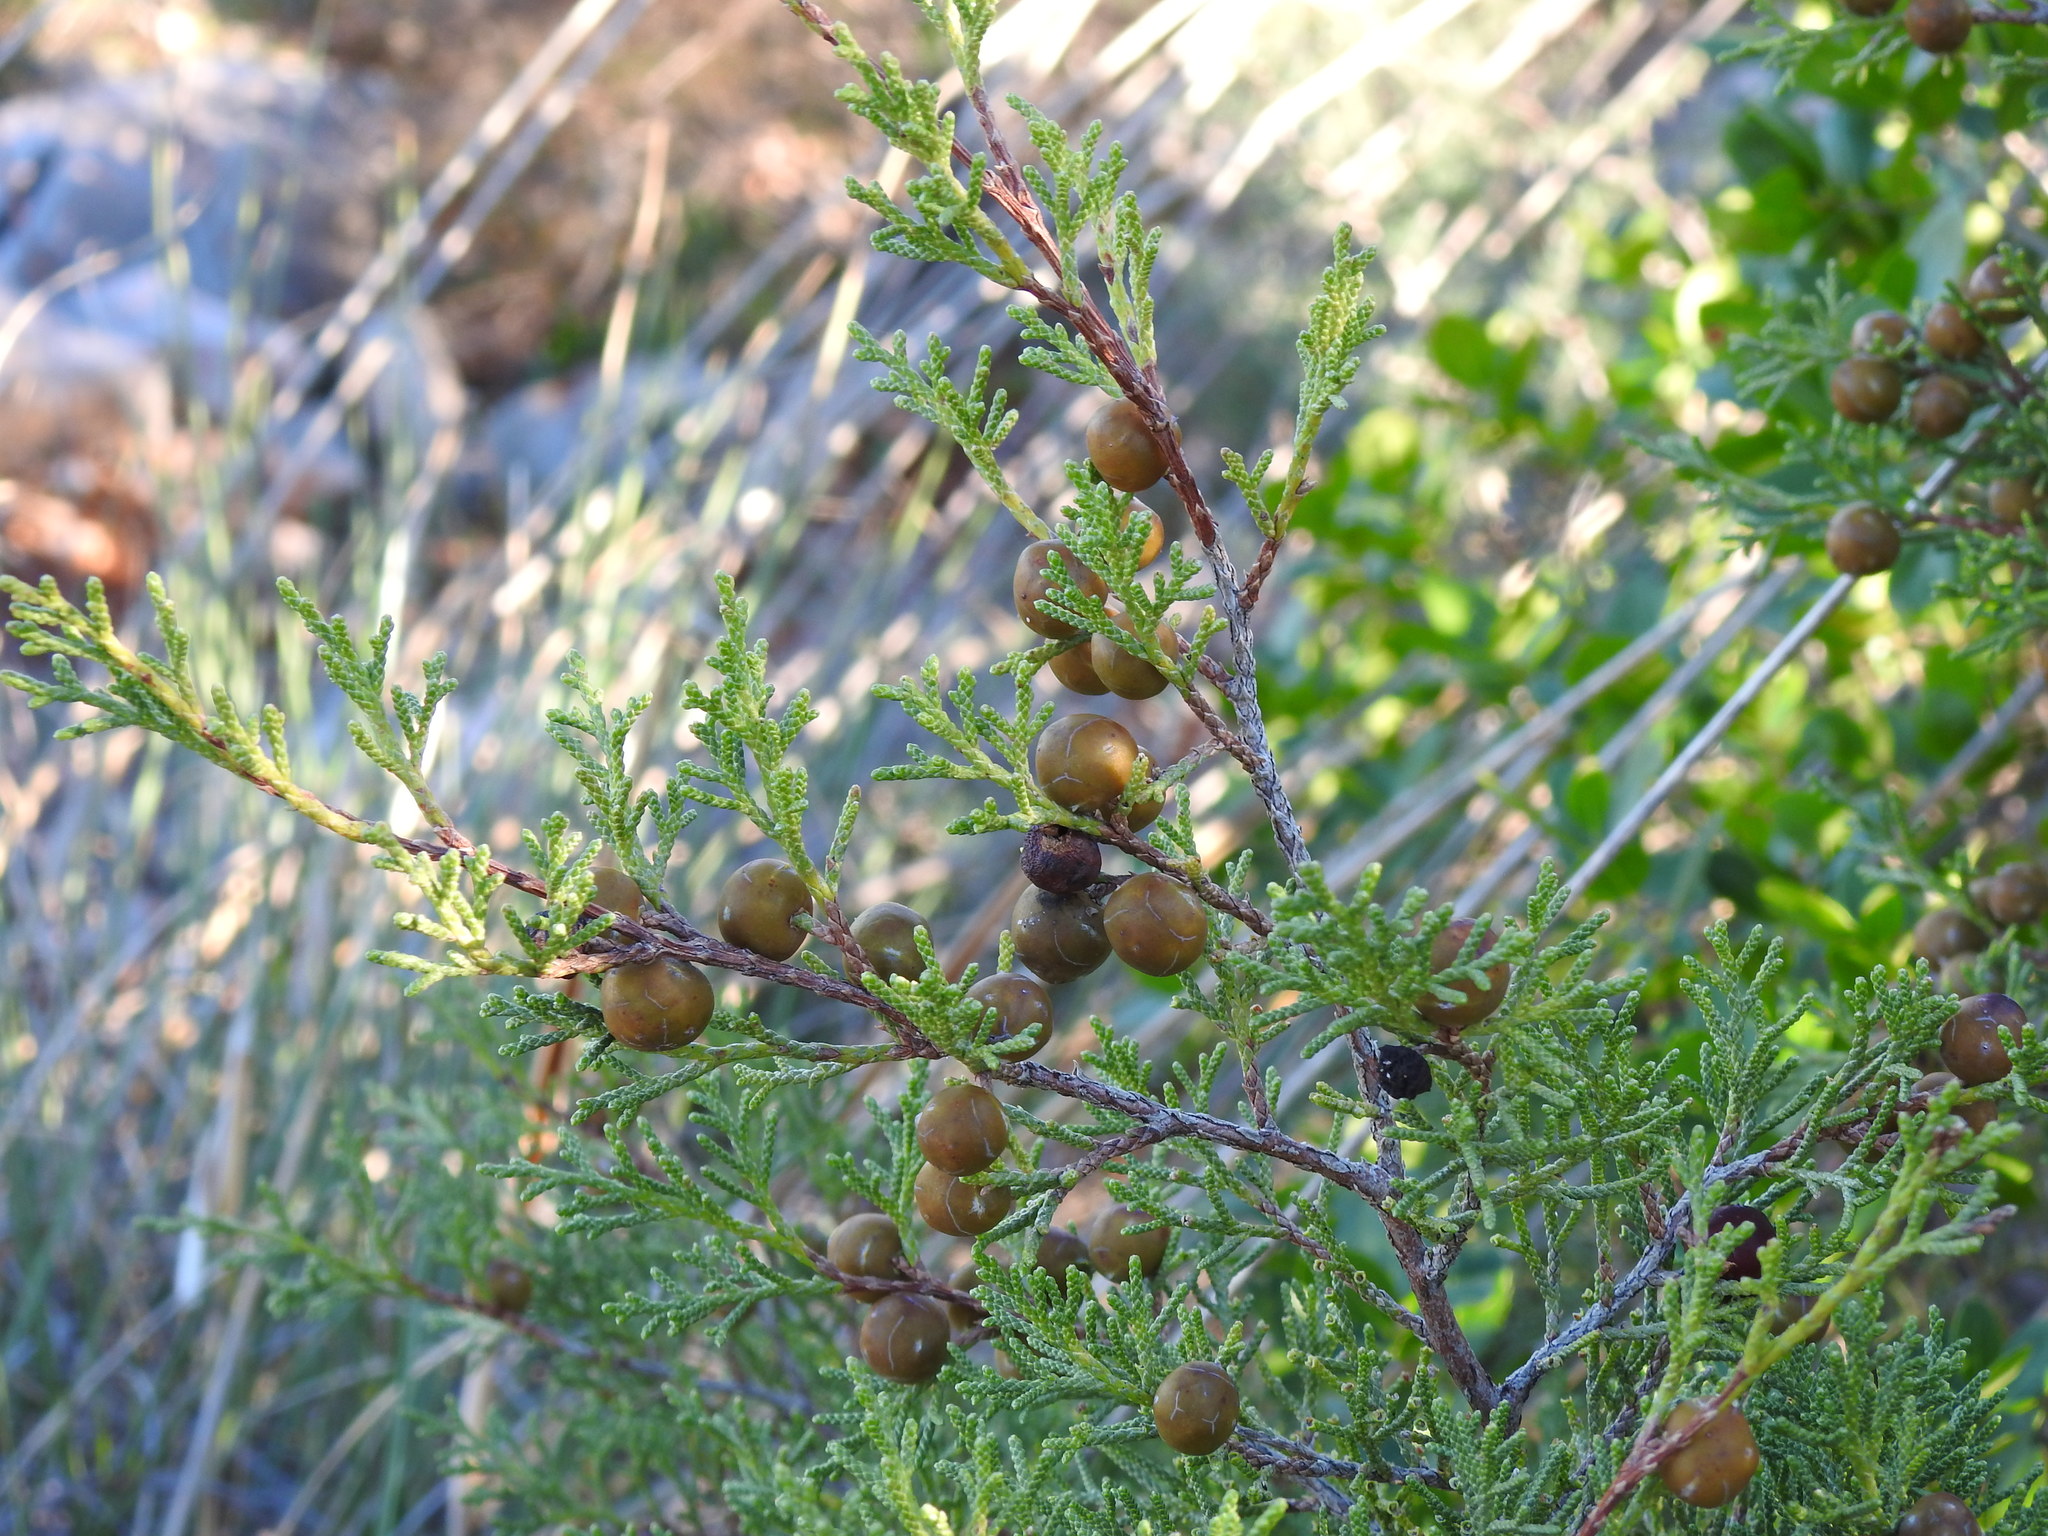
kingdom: Plantae
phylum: Tracheophyta
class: Pinopsida
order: Pinales
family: Cupressaceae
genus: Juniperus
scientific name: Juniperus phoenicea
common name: Phoenician juniper
